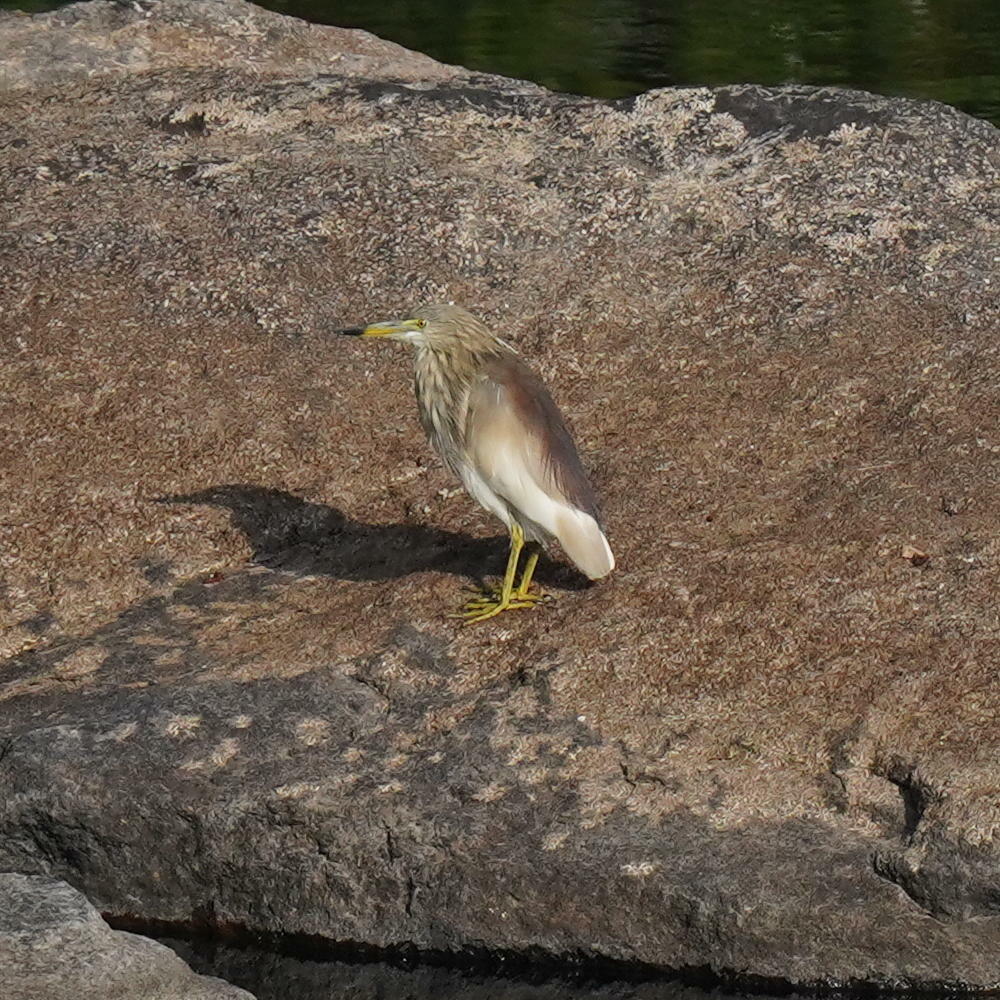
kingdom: Animalia
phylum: Chordata
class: Aves
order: Pelecaniformes
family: Ardeidae
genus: Ardeola
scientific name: Ardeola grayii
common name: Indian pond heron
